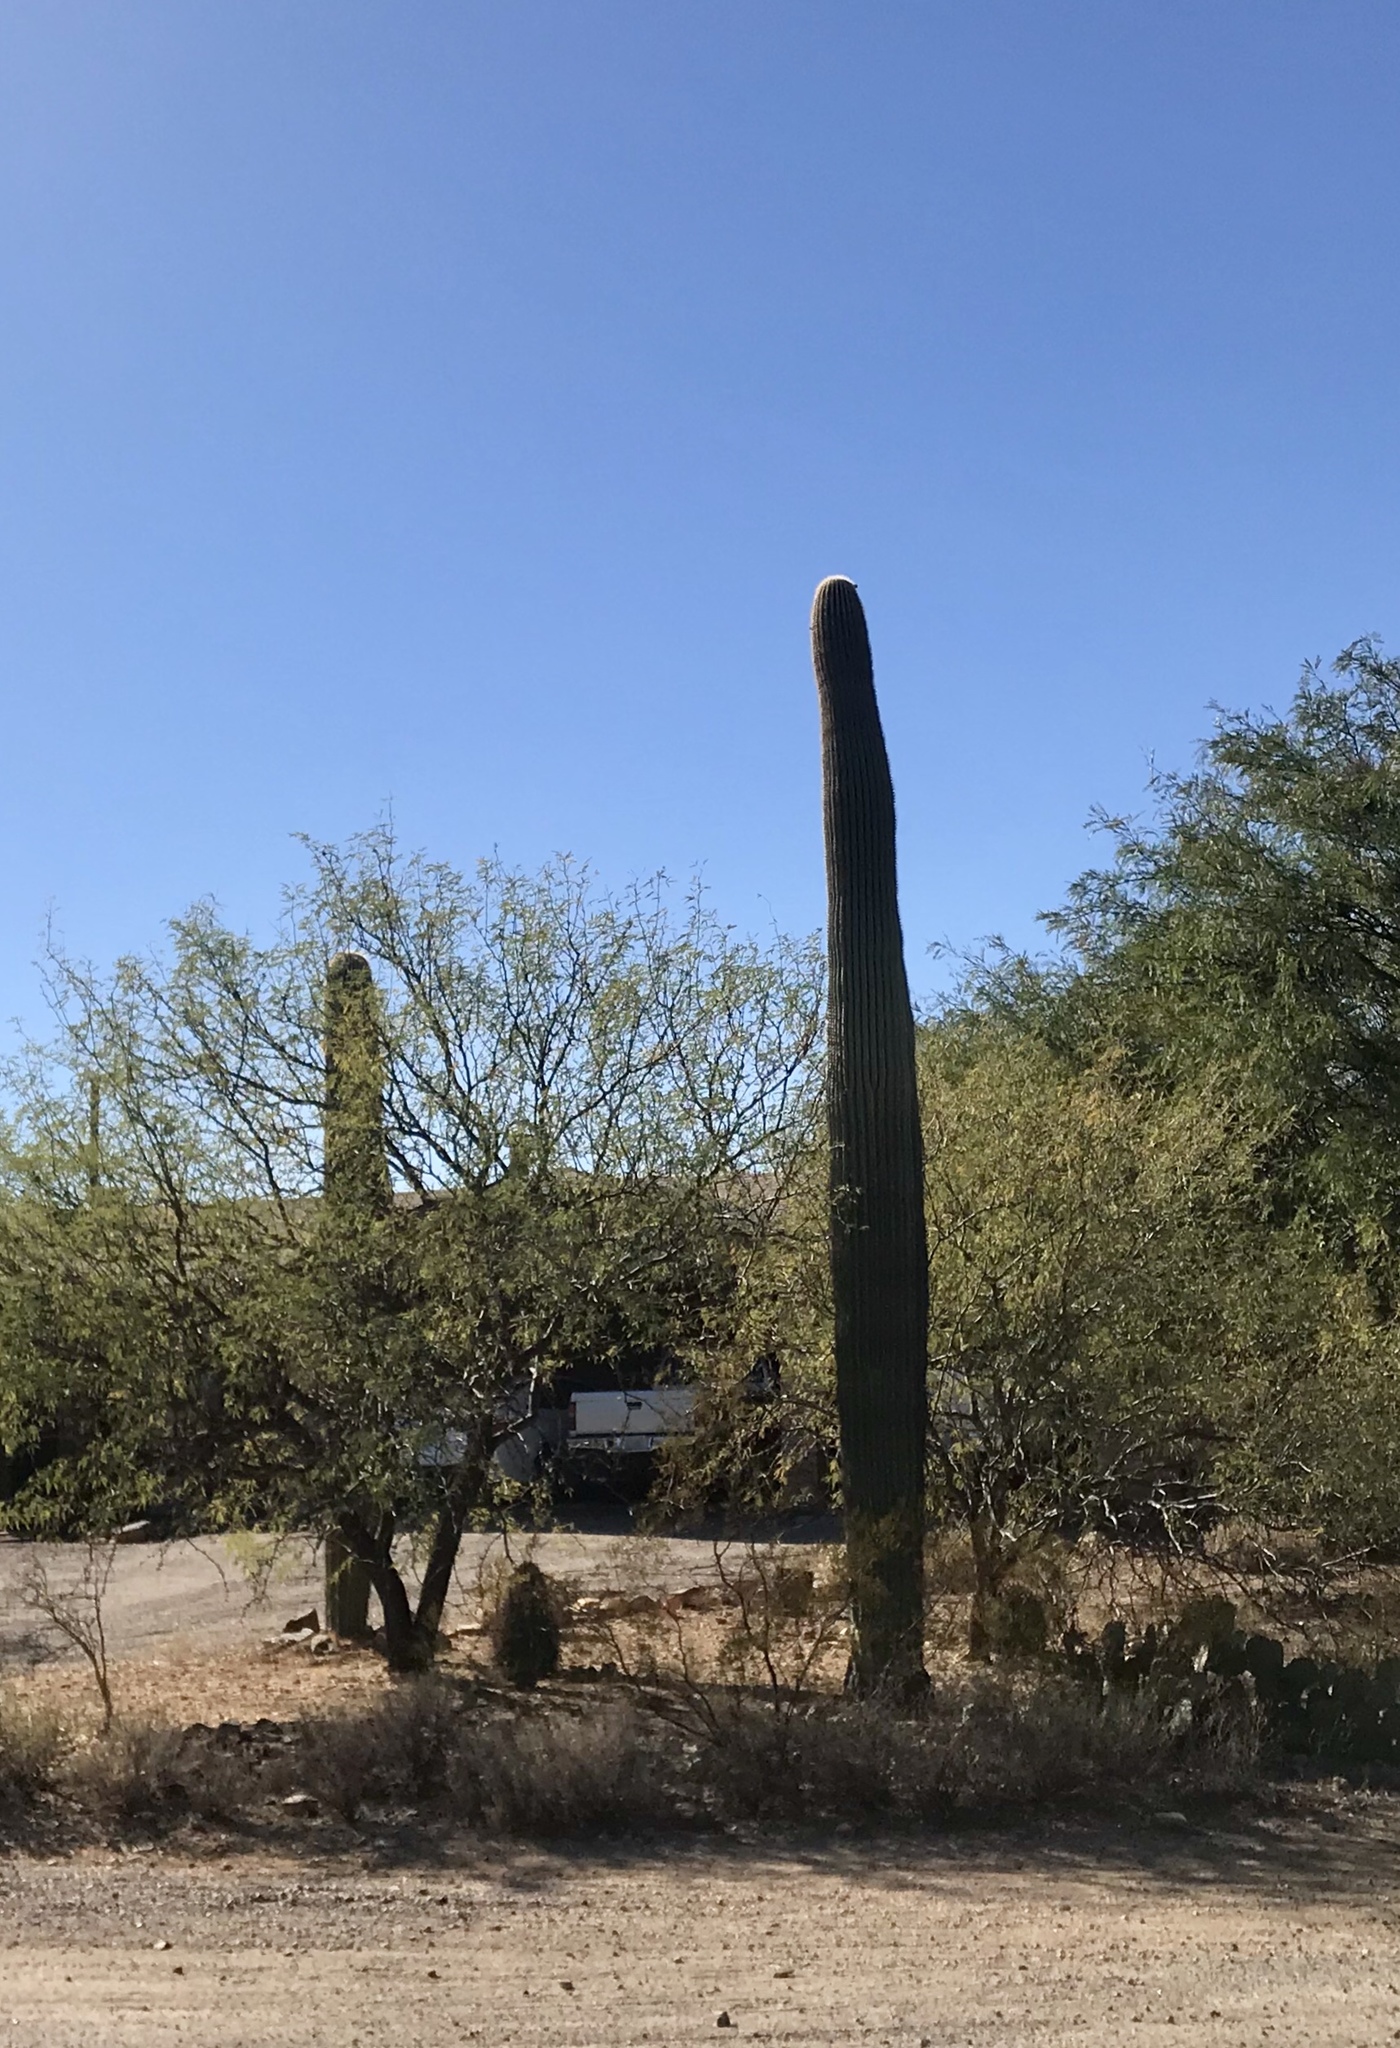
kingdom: Plantae
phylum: Tracheophyta
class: Magnoliopsida
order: Caryophyllales
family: Cactaceae
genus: Carnegiea
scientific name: Carnegiea gigantea
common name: Saguaro
